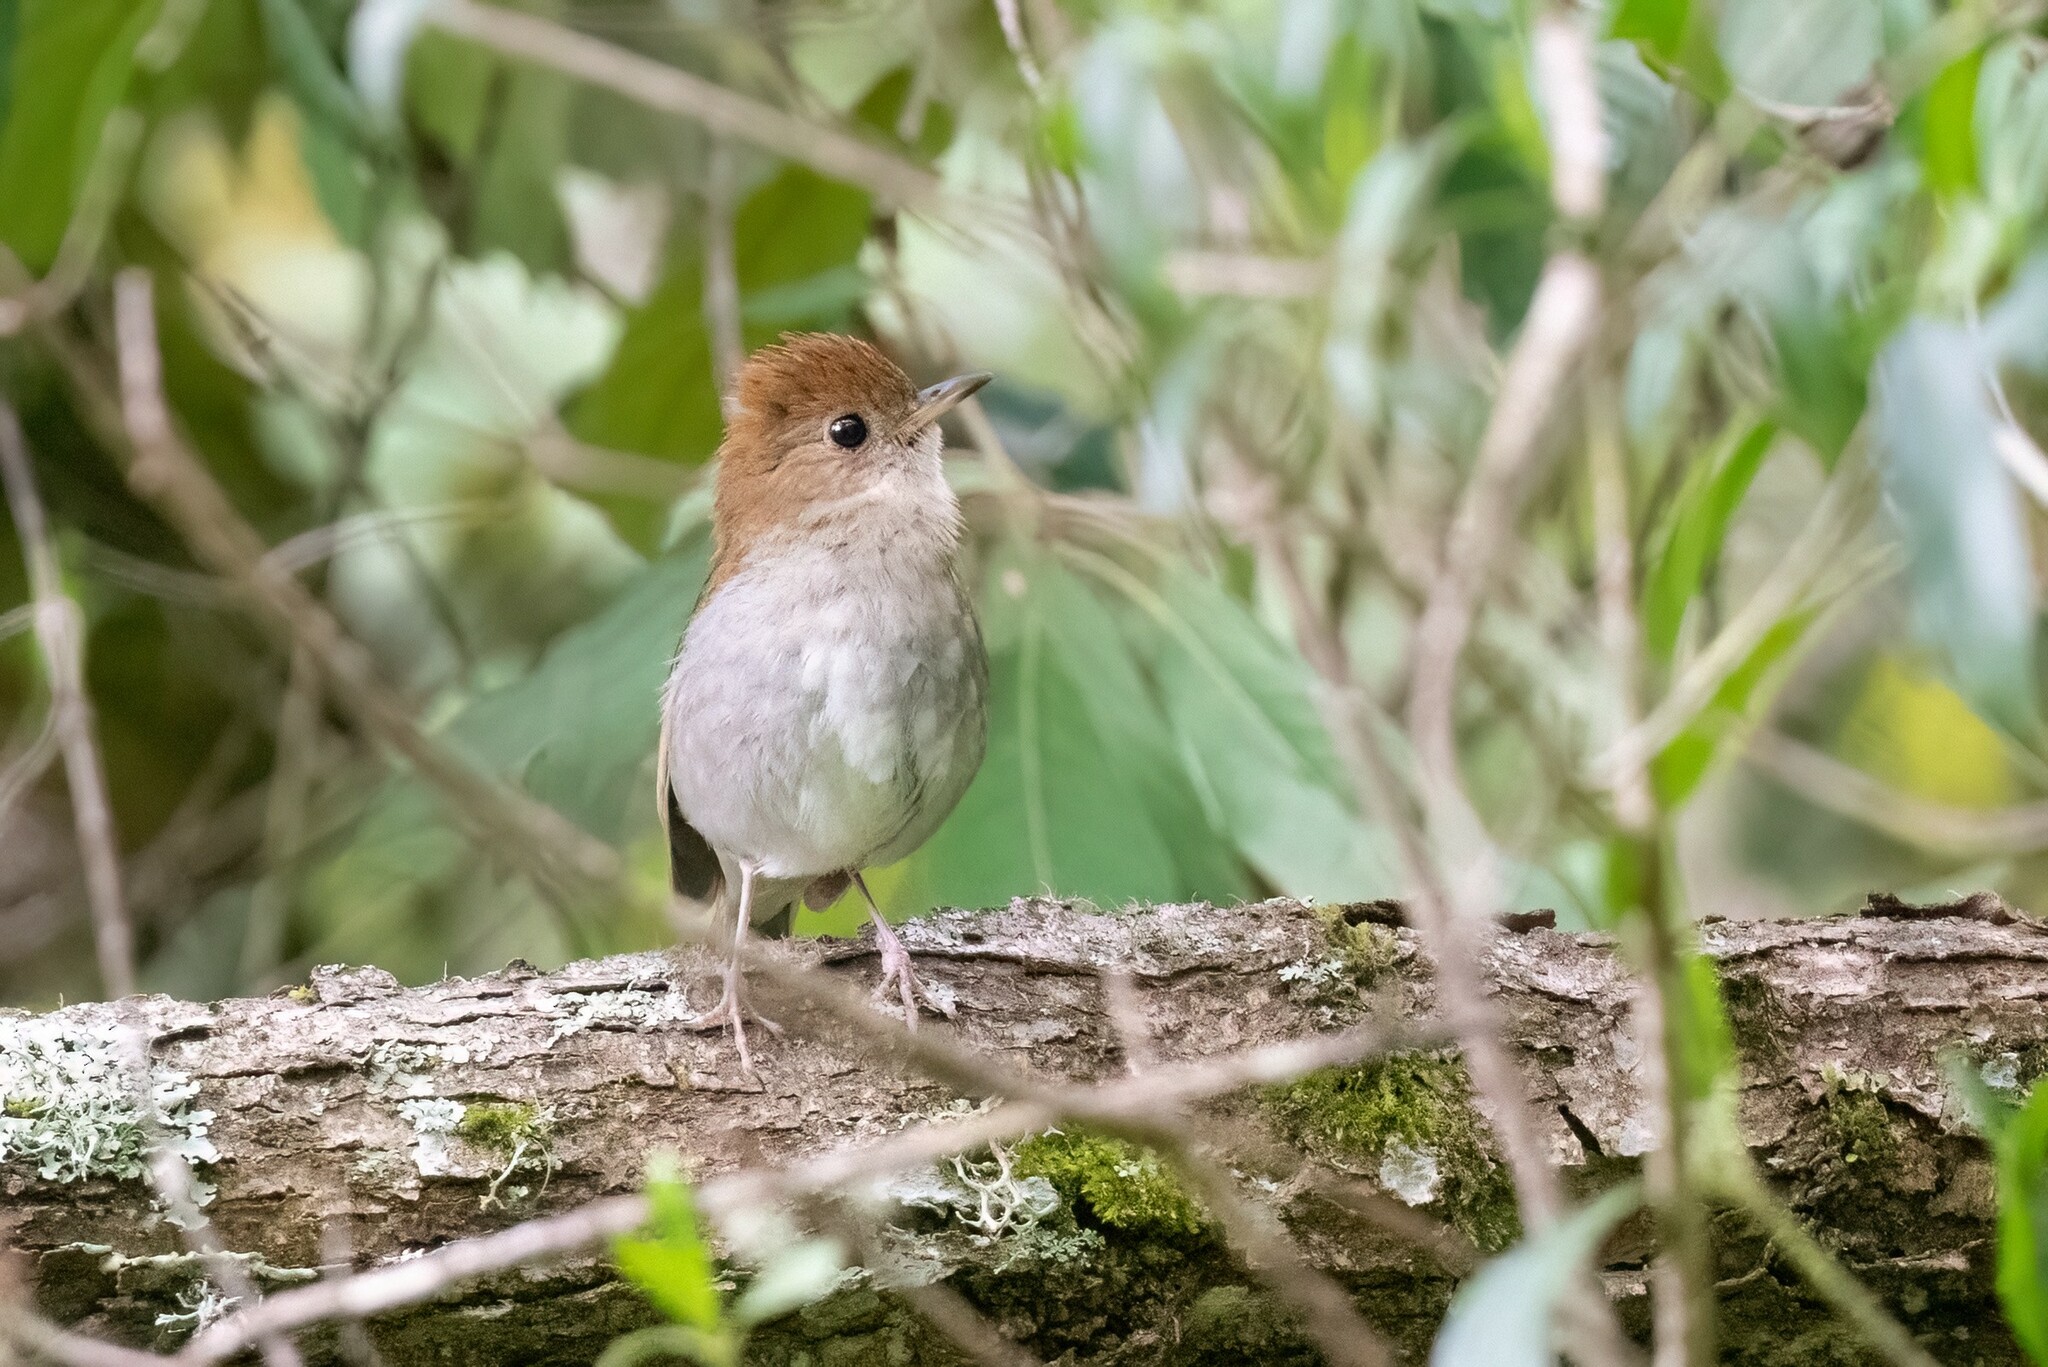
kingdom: Animalia
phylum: Chordata
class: Aves
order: Passeriformes
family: Turdidae
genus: Catharus
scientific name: Catharus occidentalis
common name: Russet nightingale-thrush
